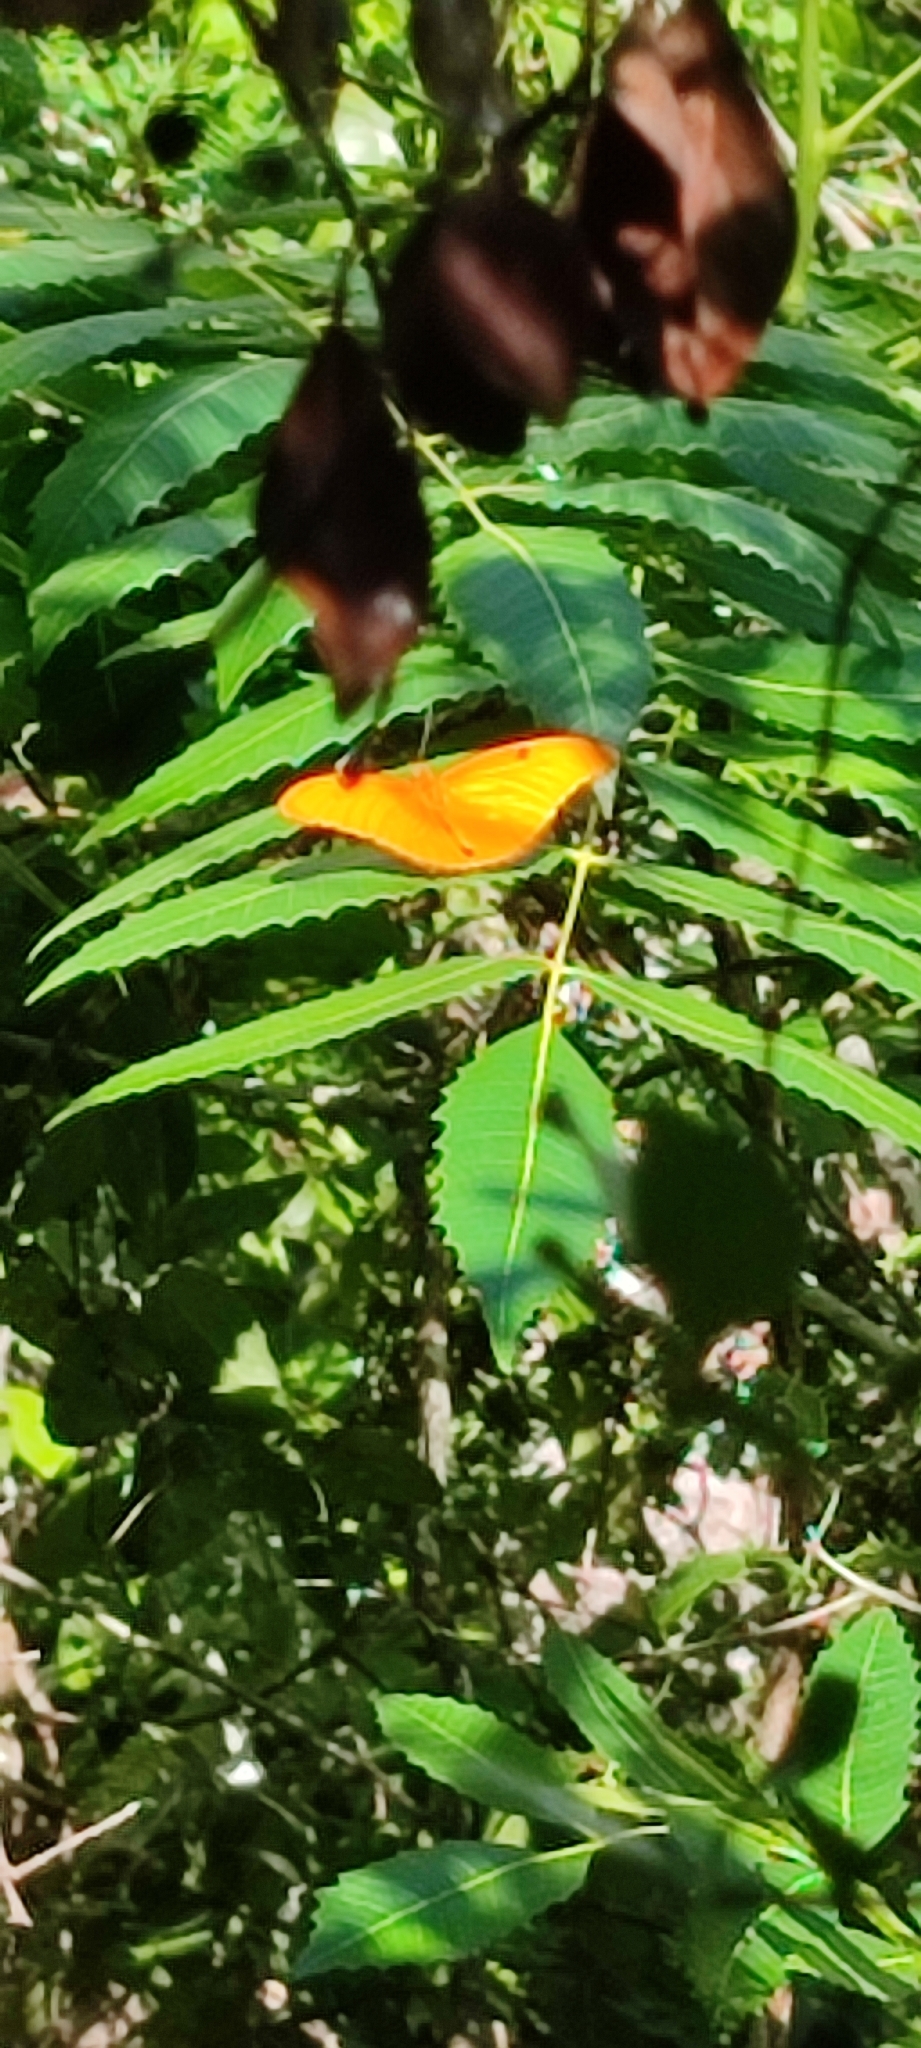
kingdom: Animalia
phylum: Arthropoda
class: Insecta
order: Lepidoptera
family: Nymphalidae
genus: Dryas
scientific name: Dryas iulia
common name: Flambeau
